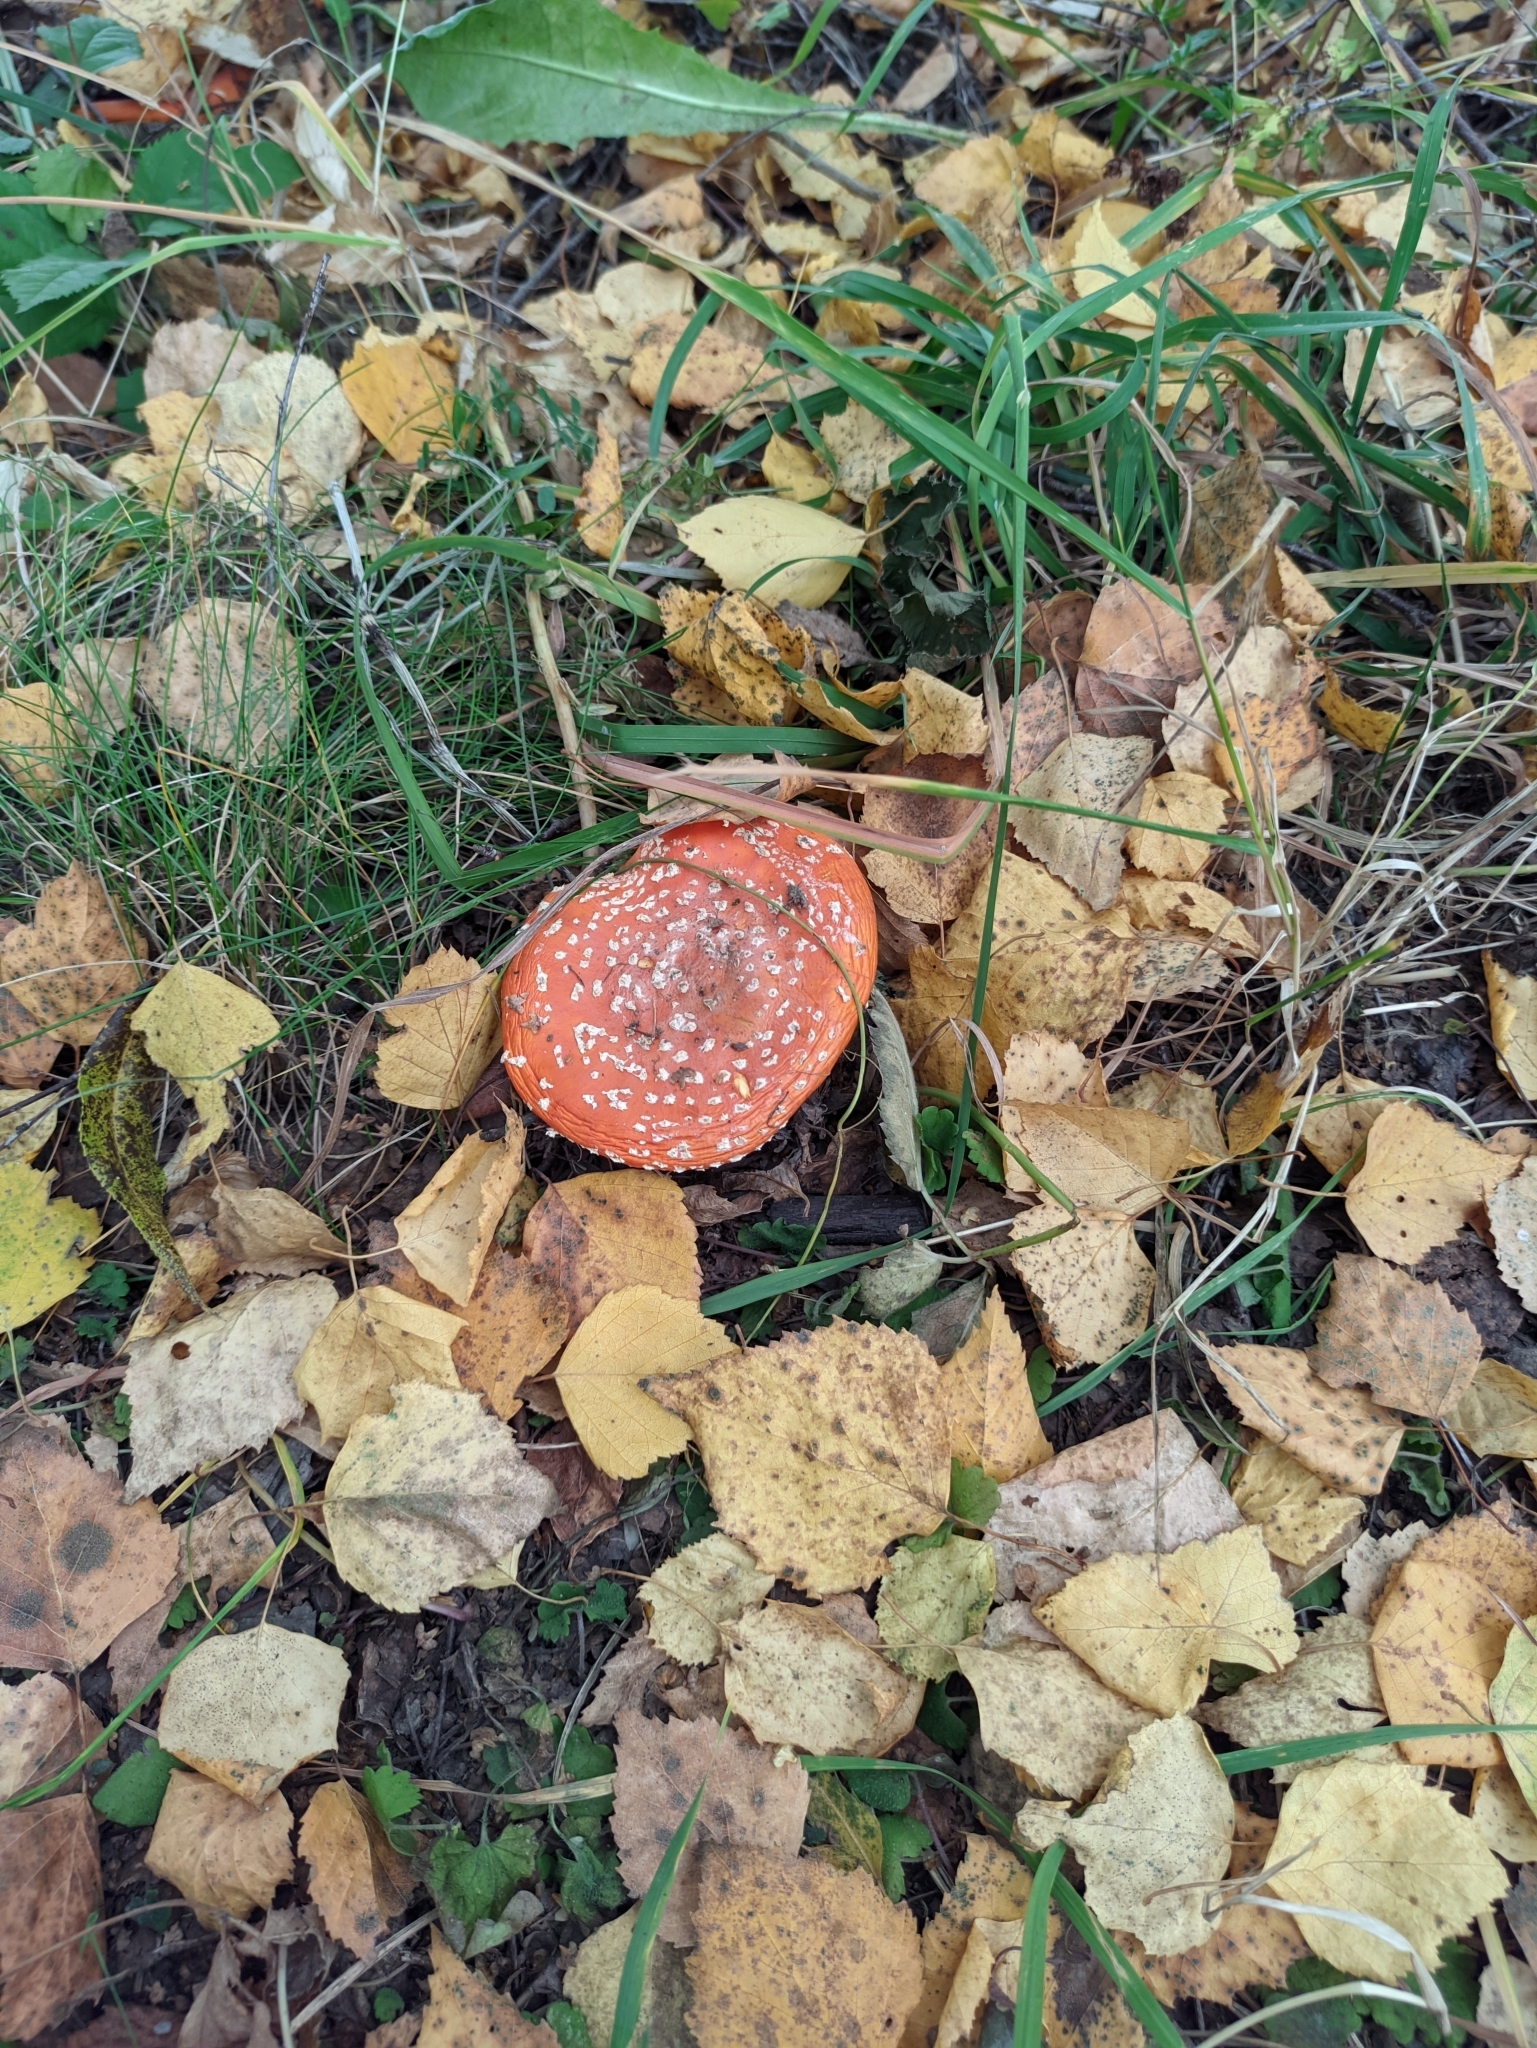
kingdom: Fungi
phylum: Basidiomycota
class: Agaricomycetes
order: Agaricales
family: Amanitaceae
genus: Amanita
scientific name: Amanita muscaria
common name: Fly agaric
